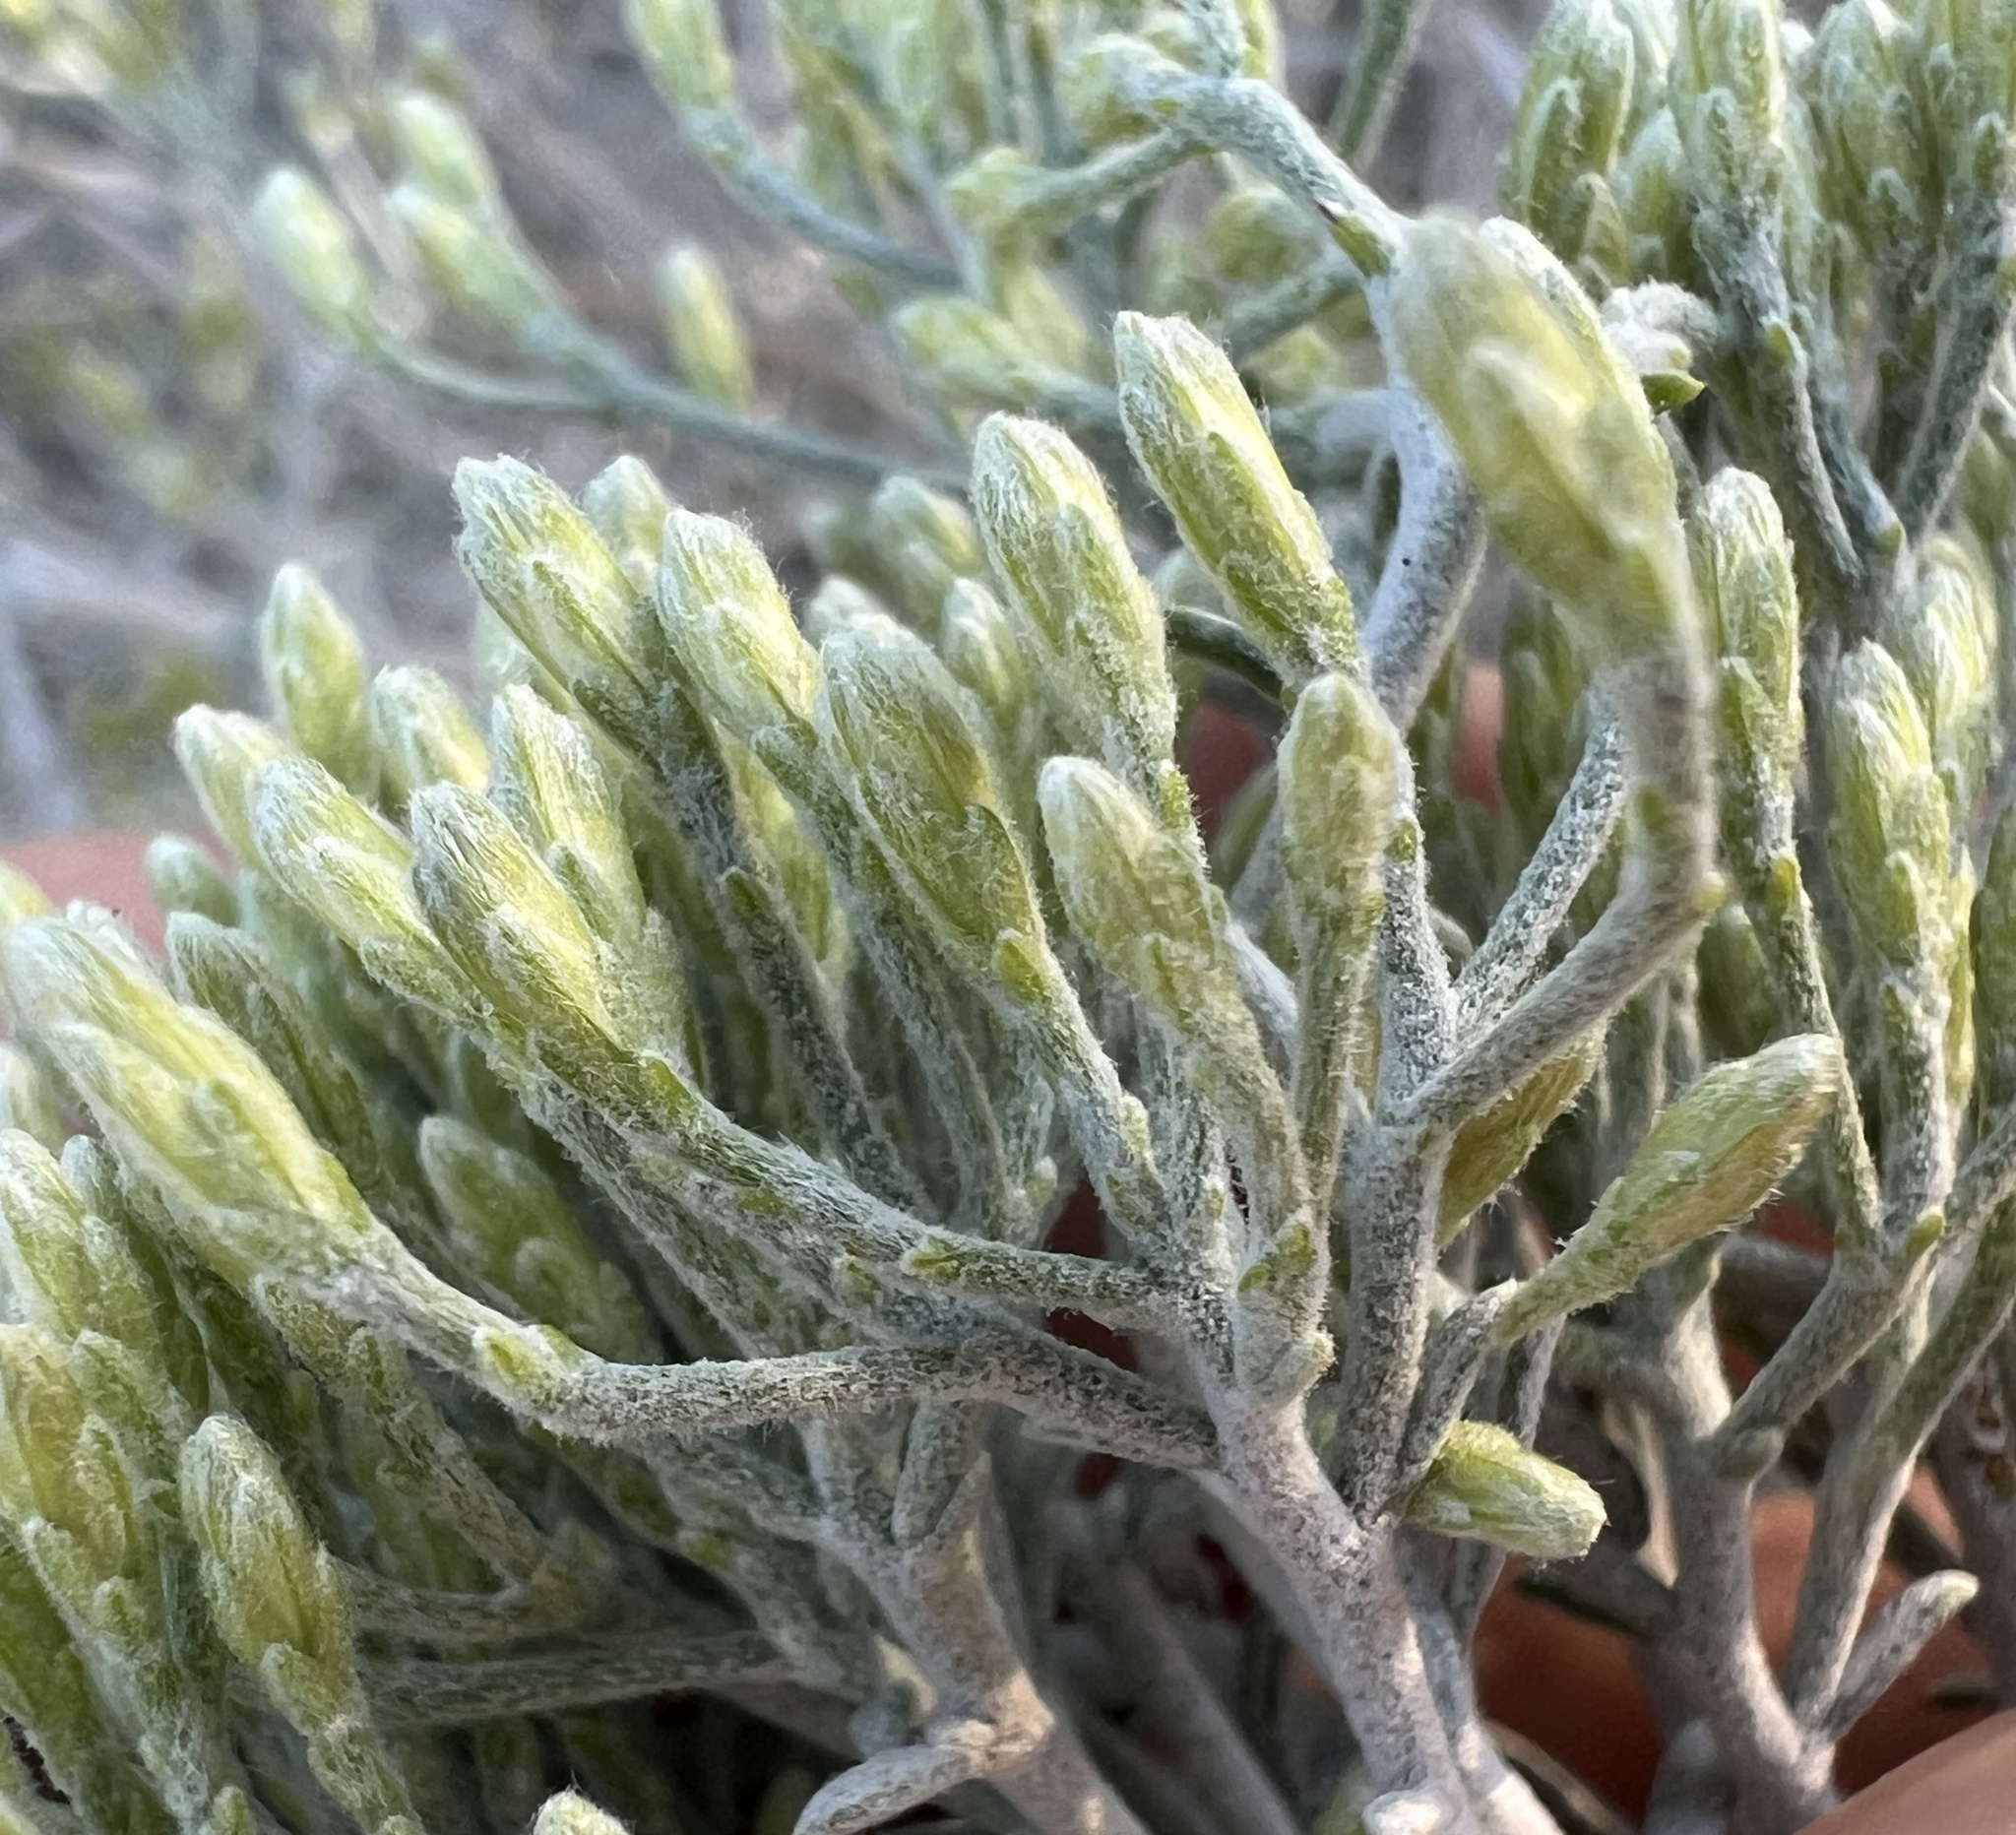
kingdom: Plantae
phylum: Tracheophyta
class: Magnoliopsida
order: Asterales
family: Asteraceae
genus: Ericameria
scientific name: Ericameria nauseosa
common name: Rubber rabbitbrush
